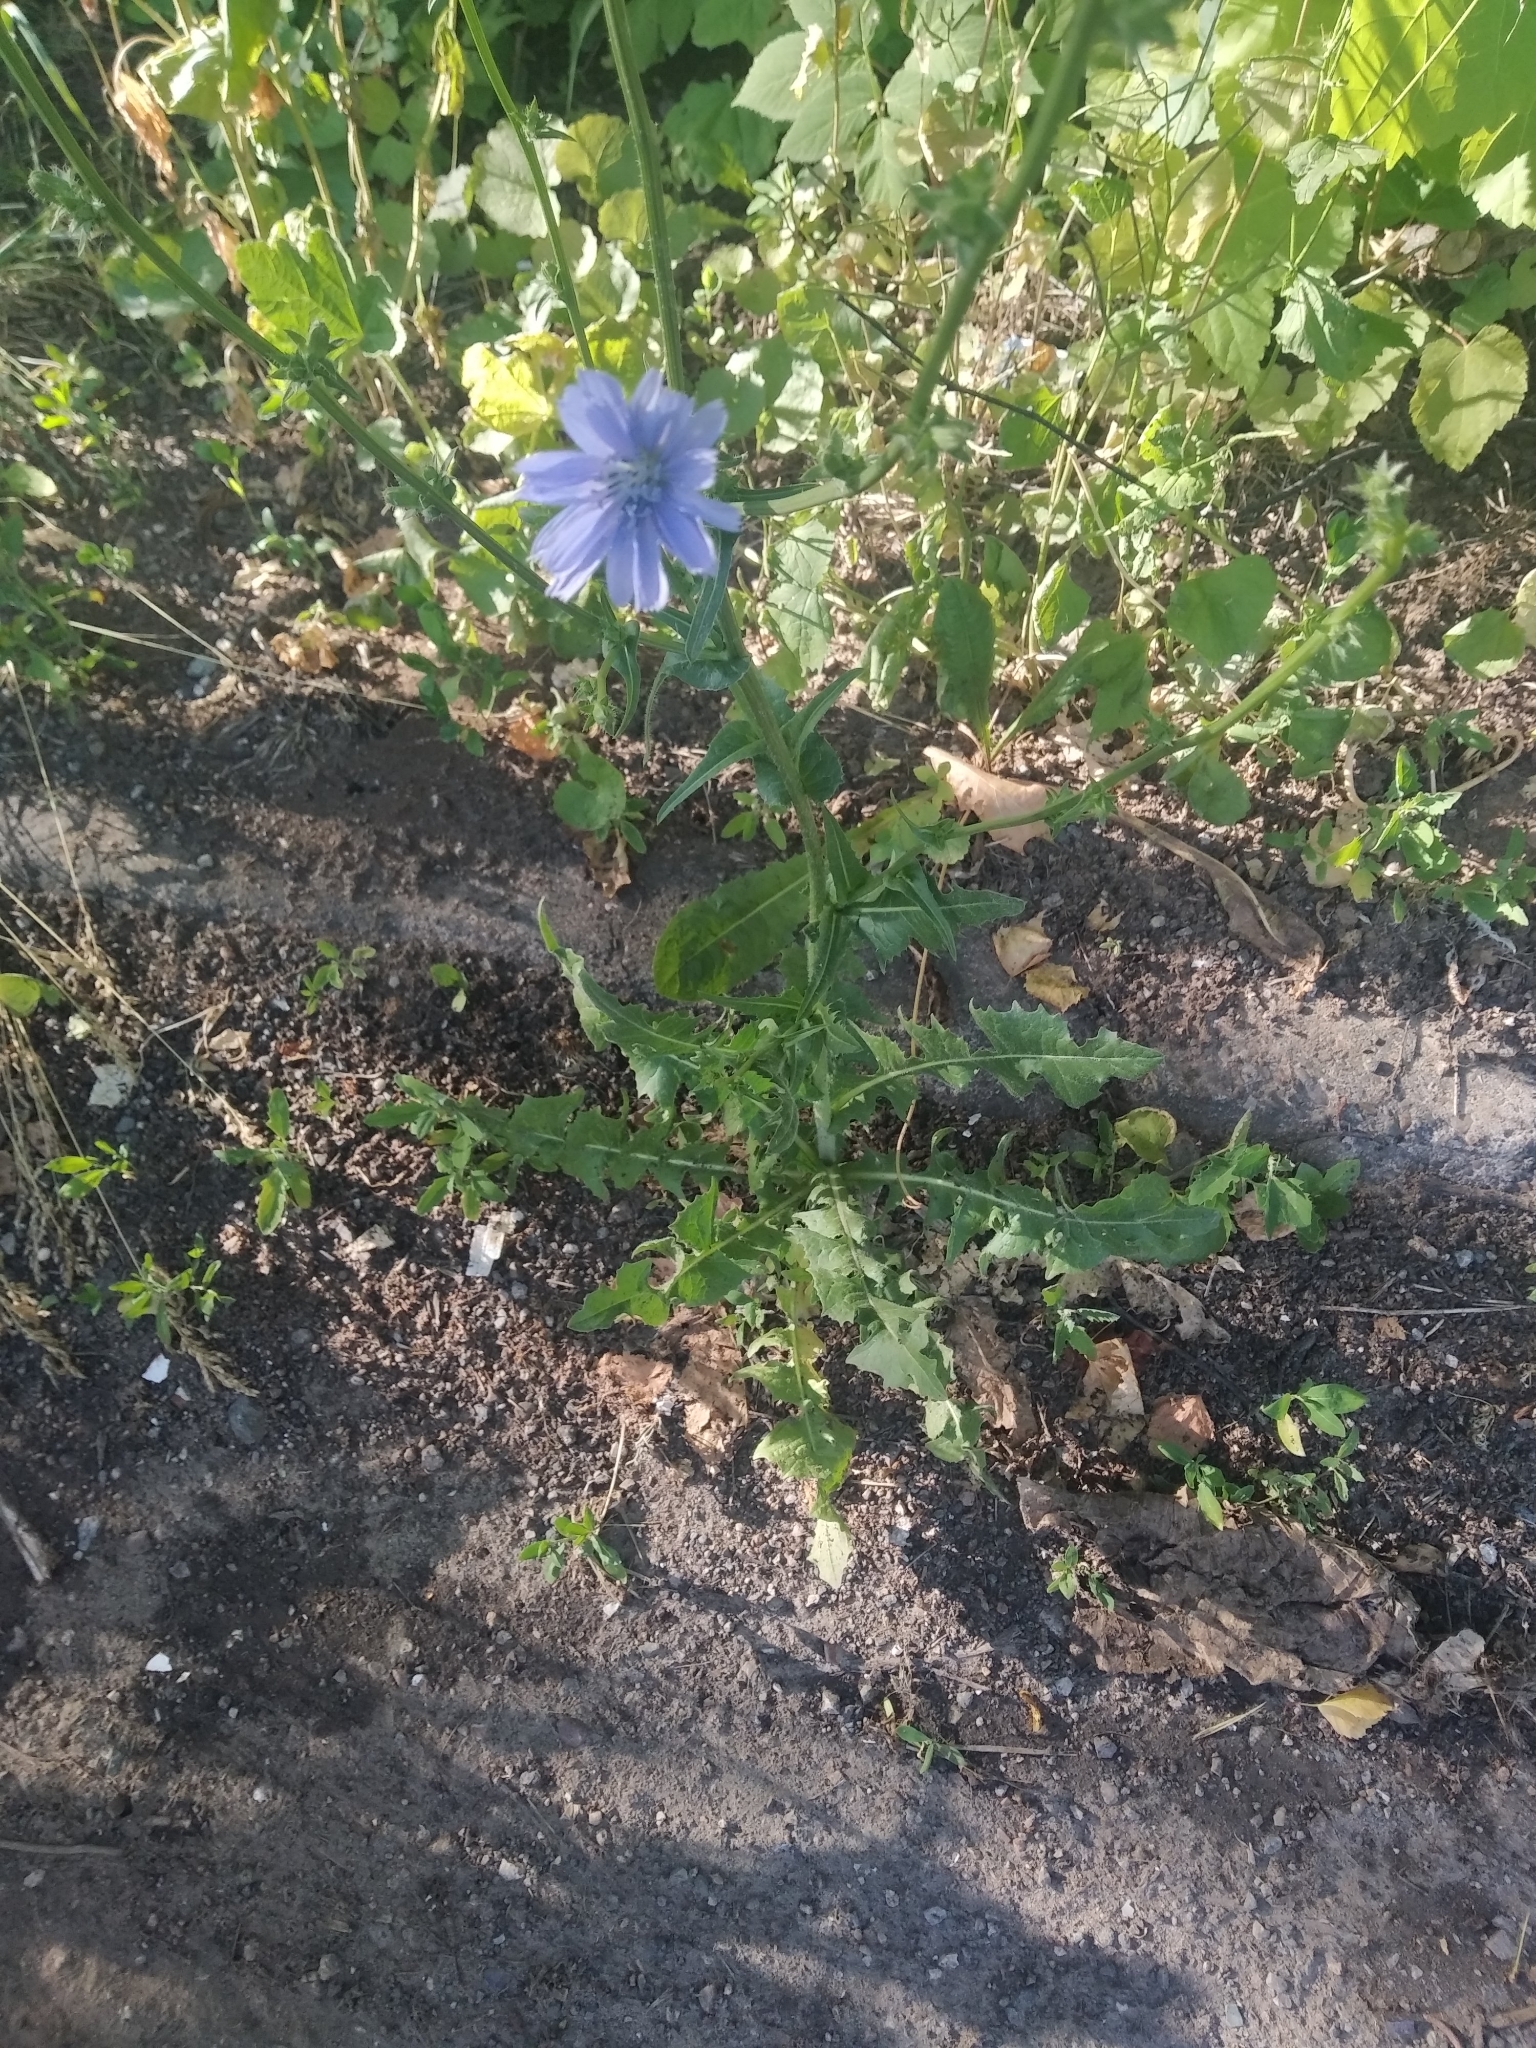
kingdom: Plantae
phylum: Tracheophyta
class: Magnoliopsida
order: Asterales
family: Asteraceae
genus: Cichorium
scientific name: Cichorium intybus
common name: Chicory
